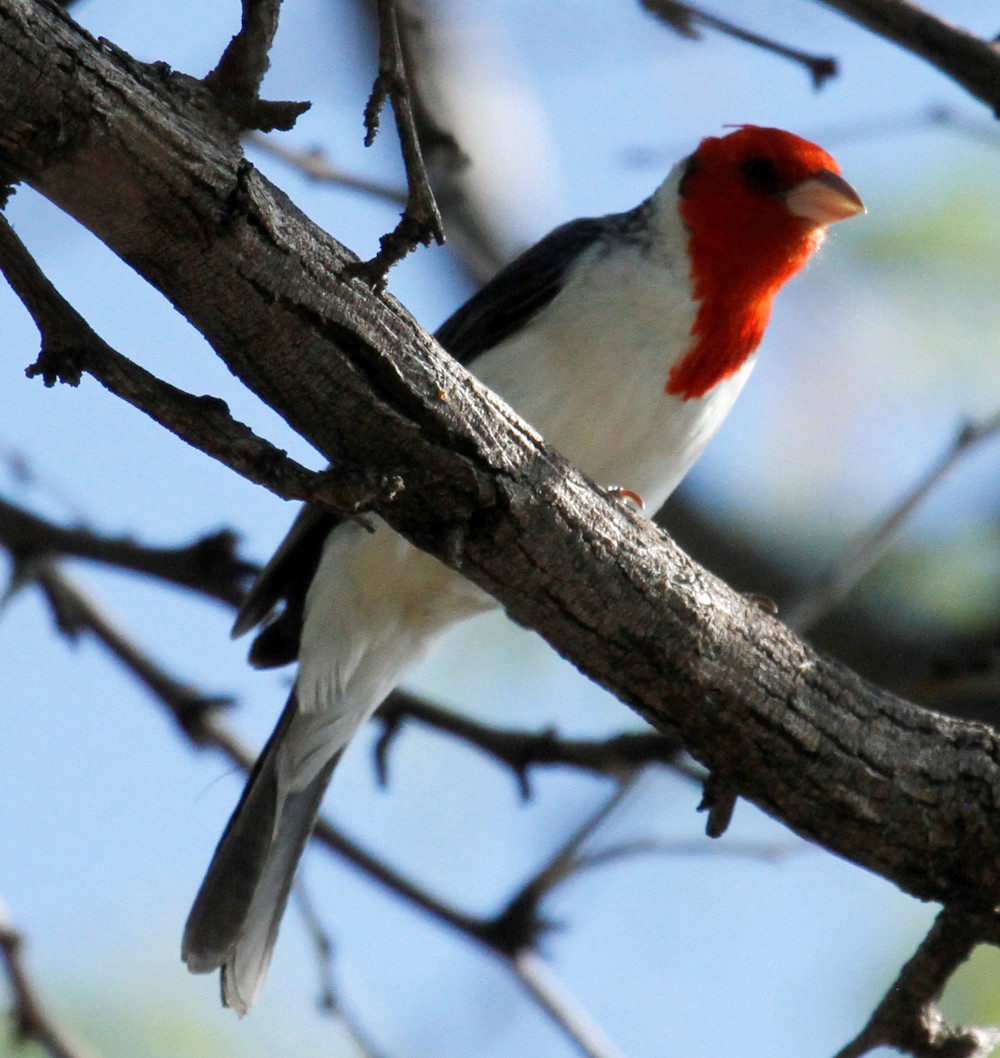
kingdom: Animalia
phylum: Chordata
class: Aves
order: Passeriformes
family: Thraupidae
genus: Paroaria
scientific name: Paroaria coronata
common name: Red-crested cardinal
